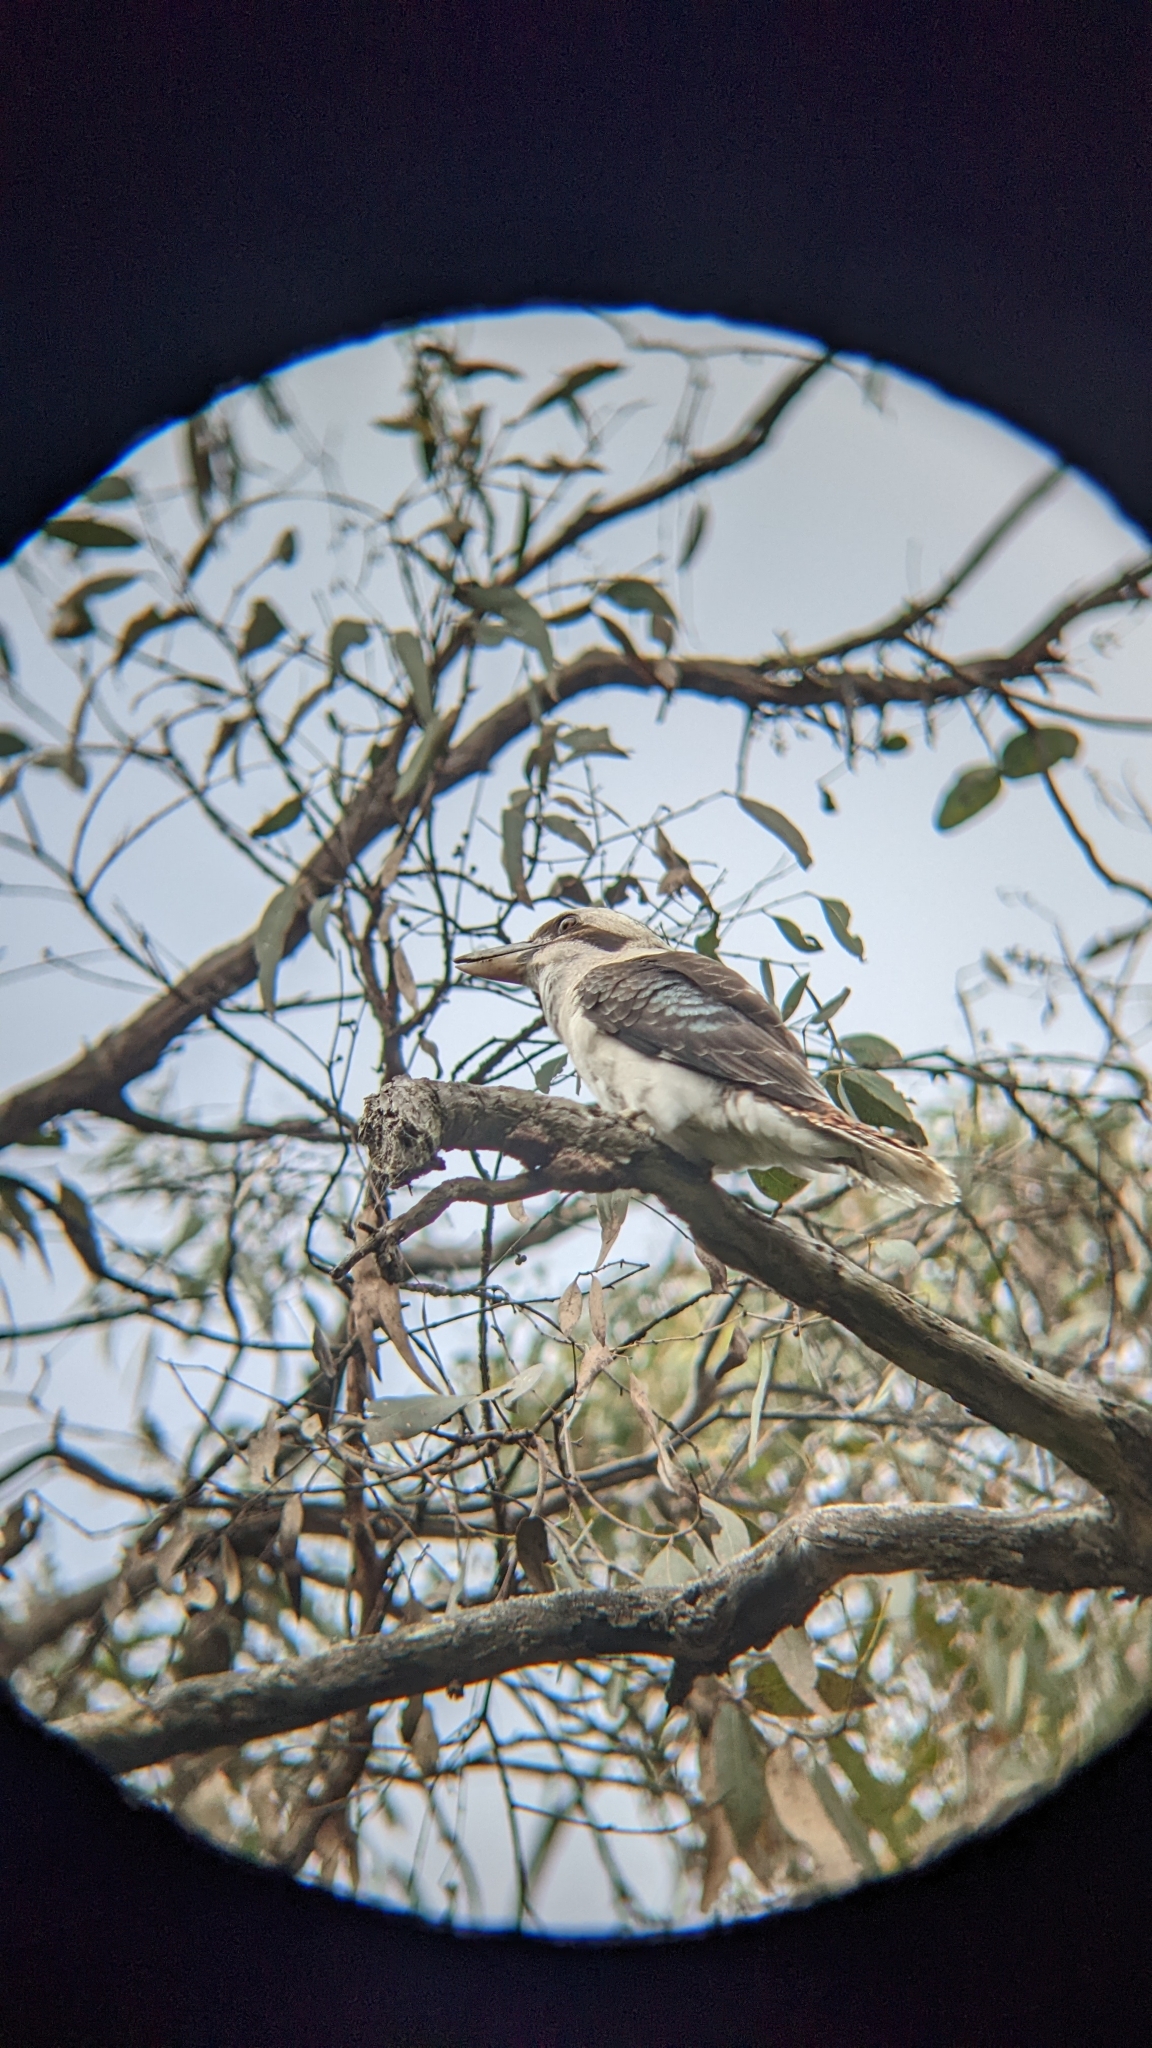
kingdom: Animalia
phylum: Chordata
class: Aves
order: Coraciiformes
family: Alcedinidae
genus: Dacelo
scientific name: Dacelo novaeguineae
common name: Laughing kookaburra
